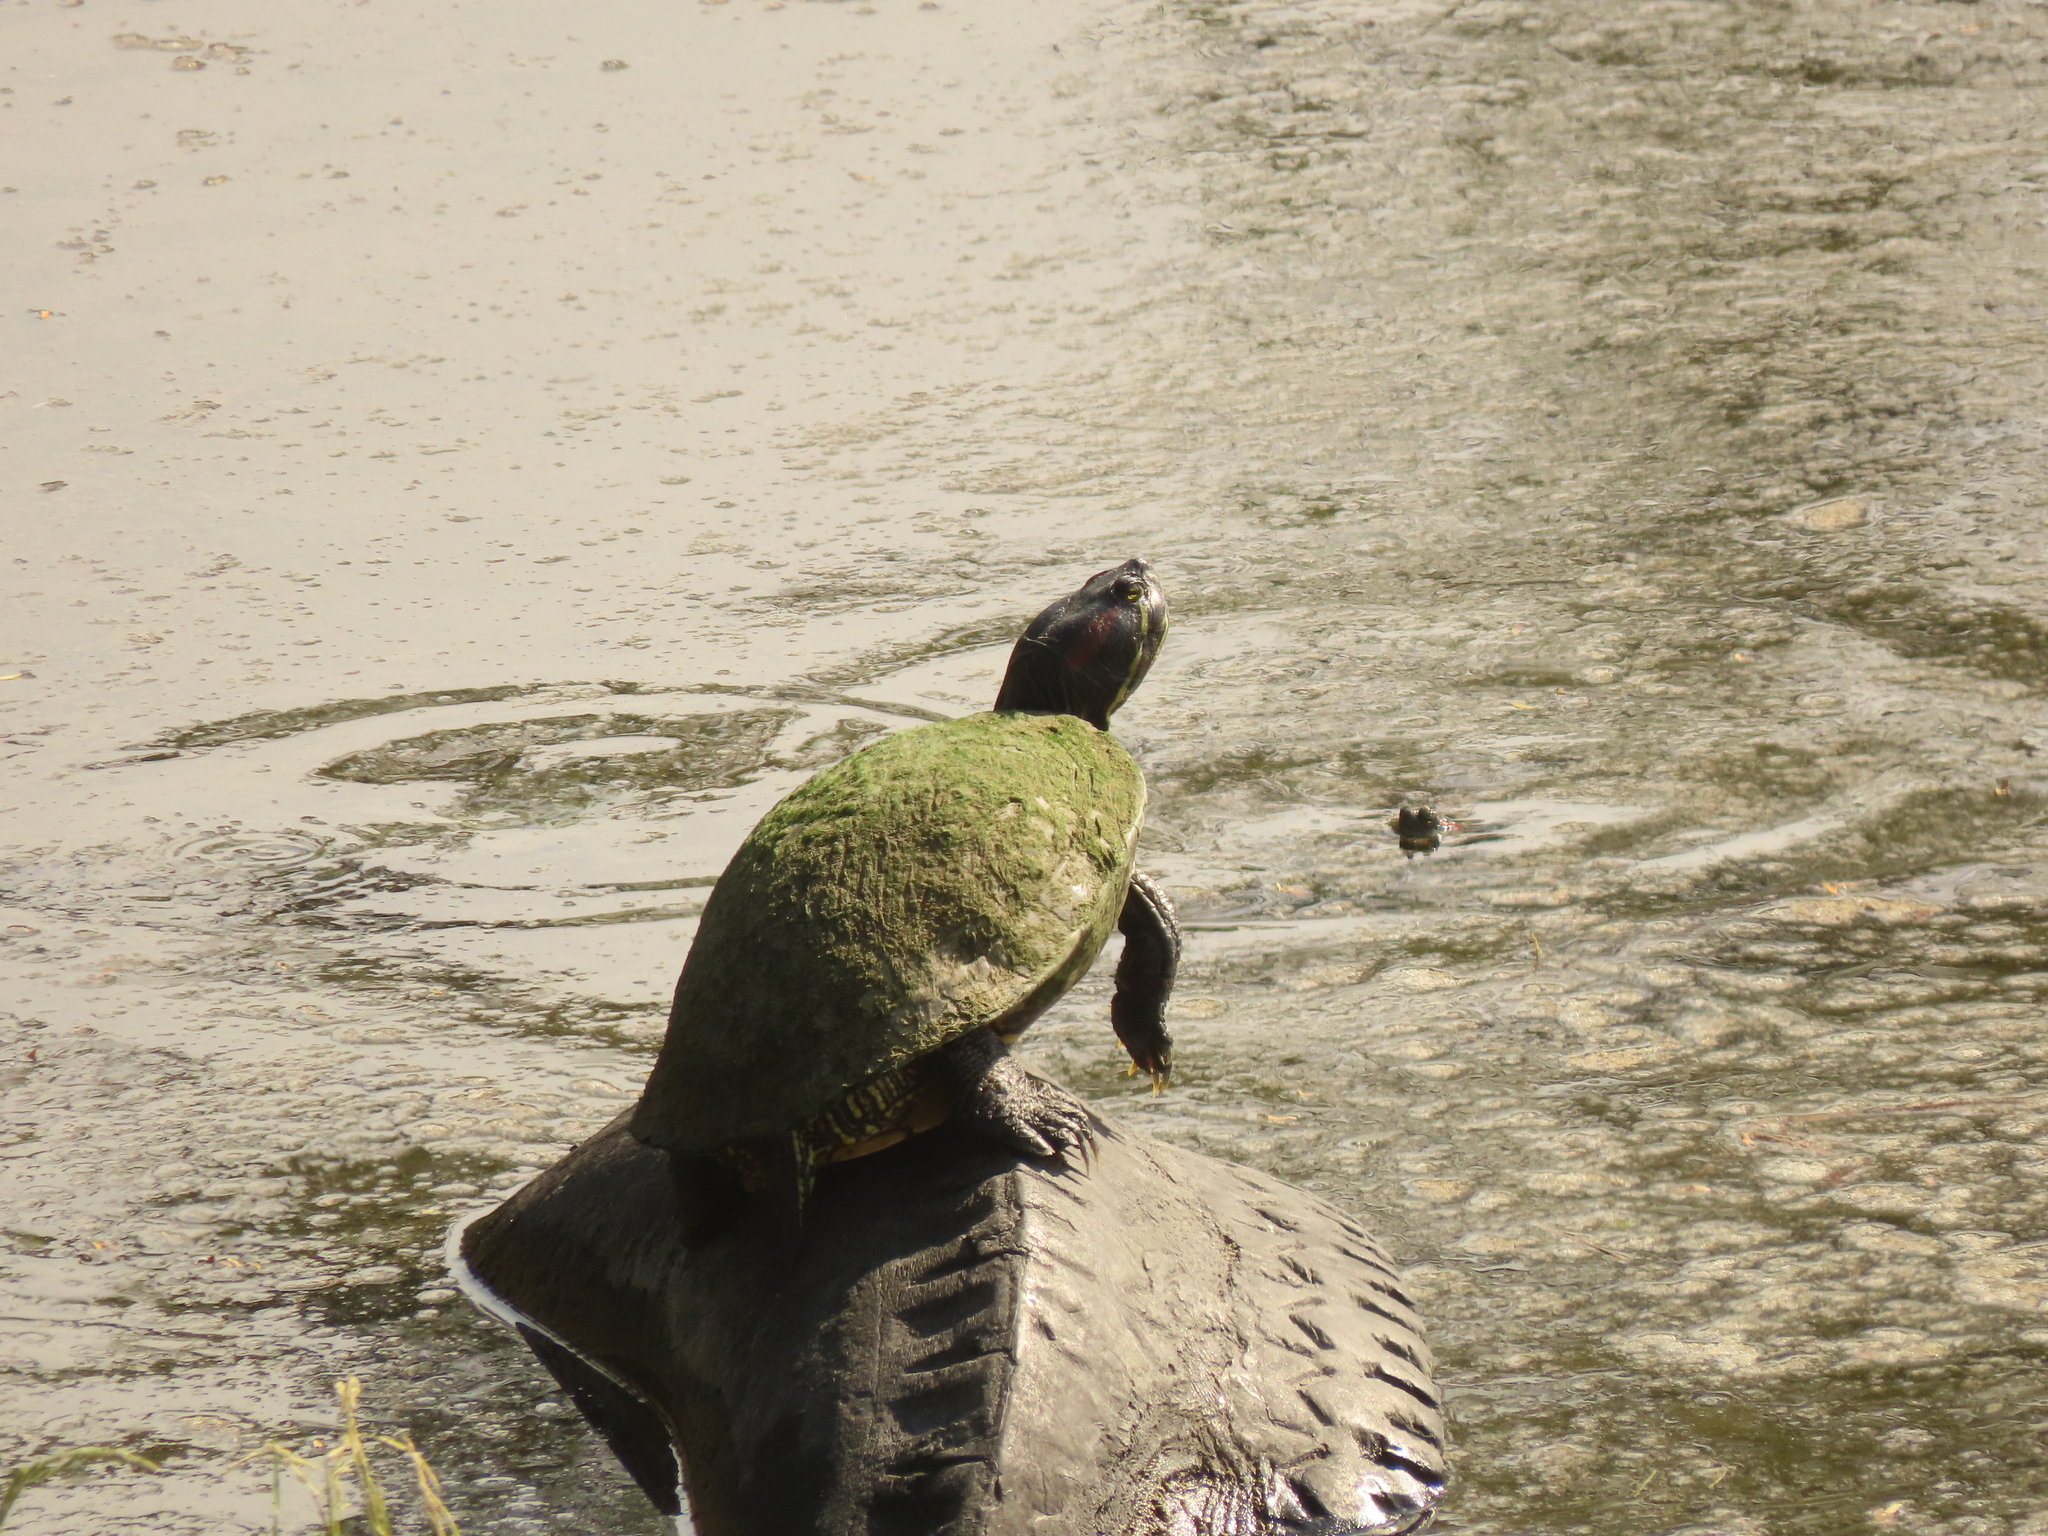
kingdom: Animalia
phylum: Chordata
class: Testudines
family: Emydidae
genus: Trachemys
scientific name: Trachemys scripta
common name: Slider
